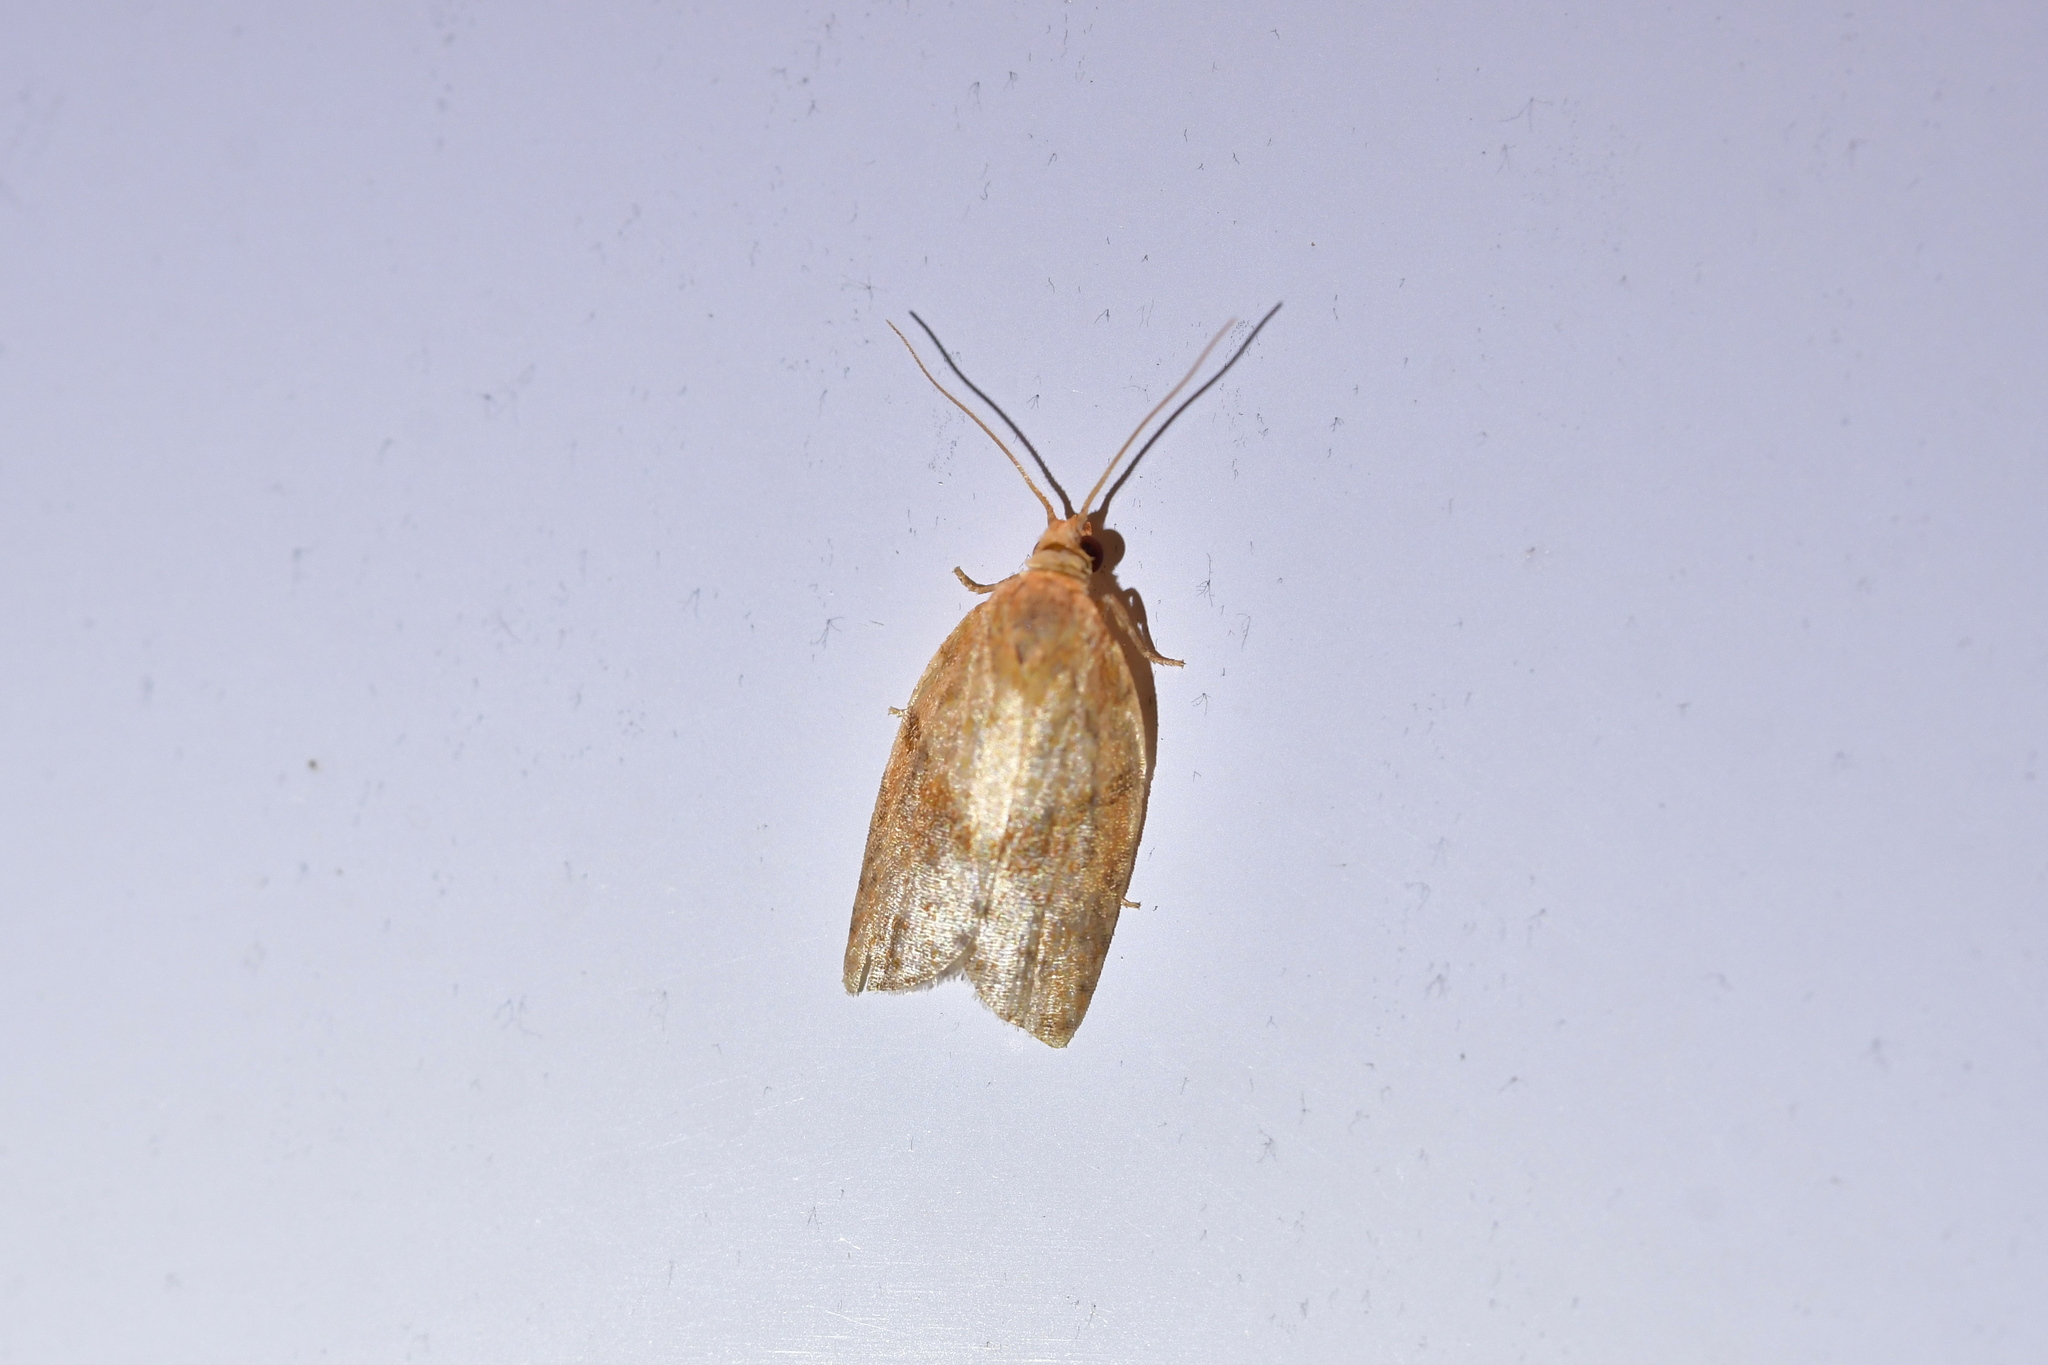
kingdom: Animalia
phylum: Arthropoda
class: Insecta
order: Lepidoptera
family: Tortricidae
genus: Epiphyas
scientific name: Epiphyas postvittana
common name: Light brown apple moth
